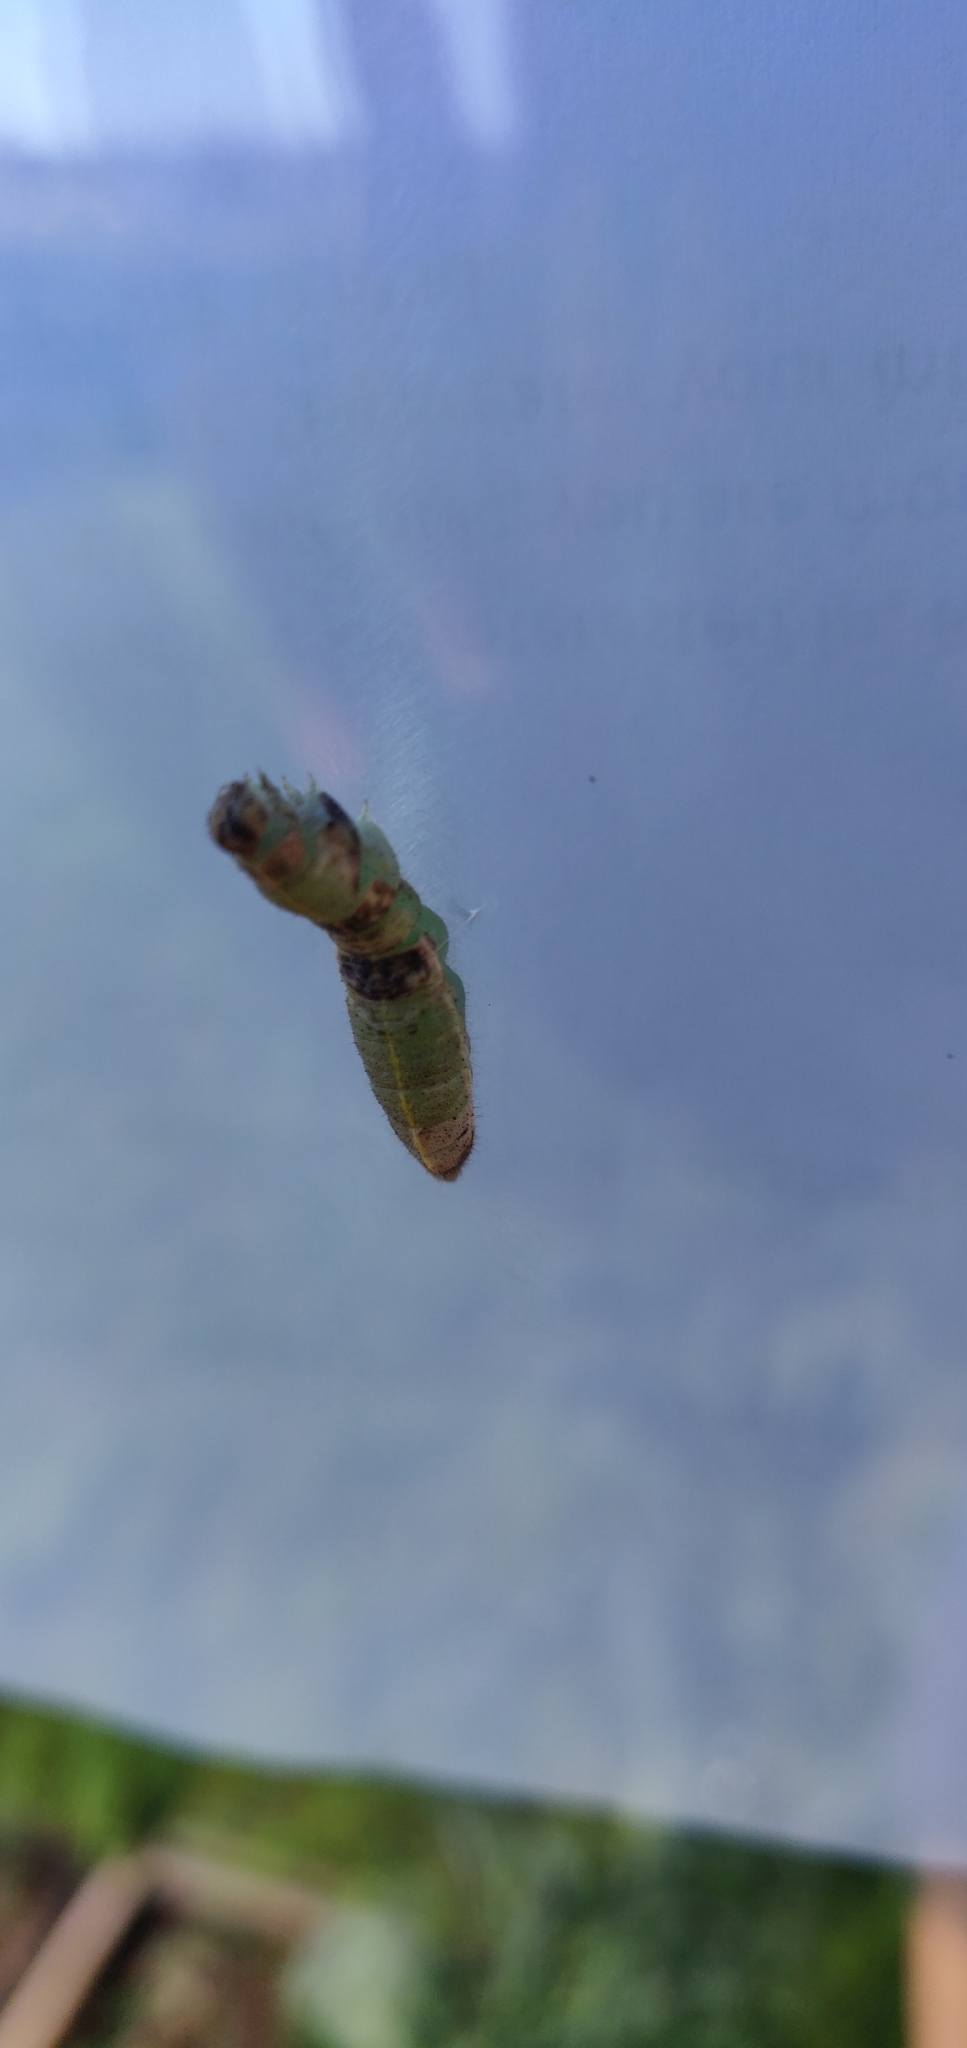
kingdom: Animalia
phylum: Arthropoda
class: Insecta
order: Lepidoptera
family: Pieridae
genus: Pieris
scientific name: Pieris rapae
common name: Small white
